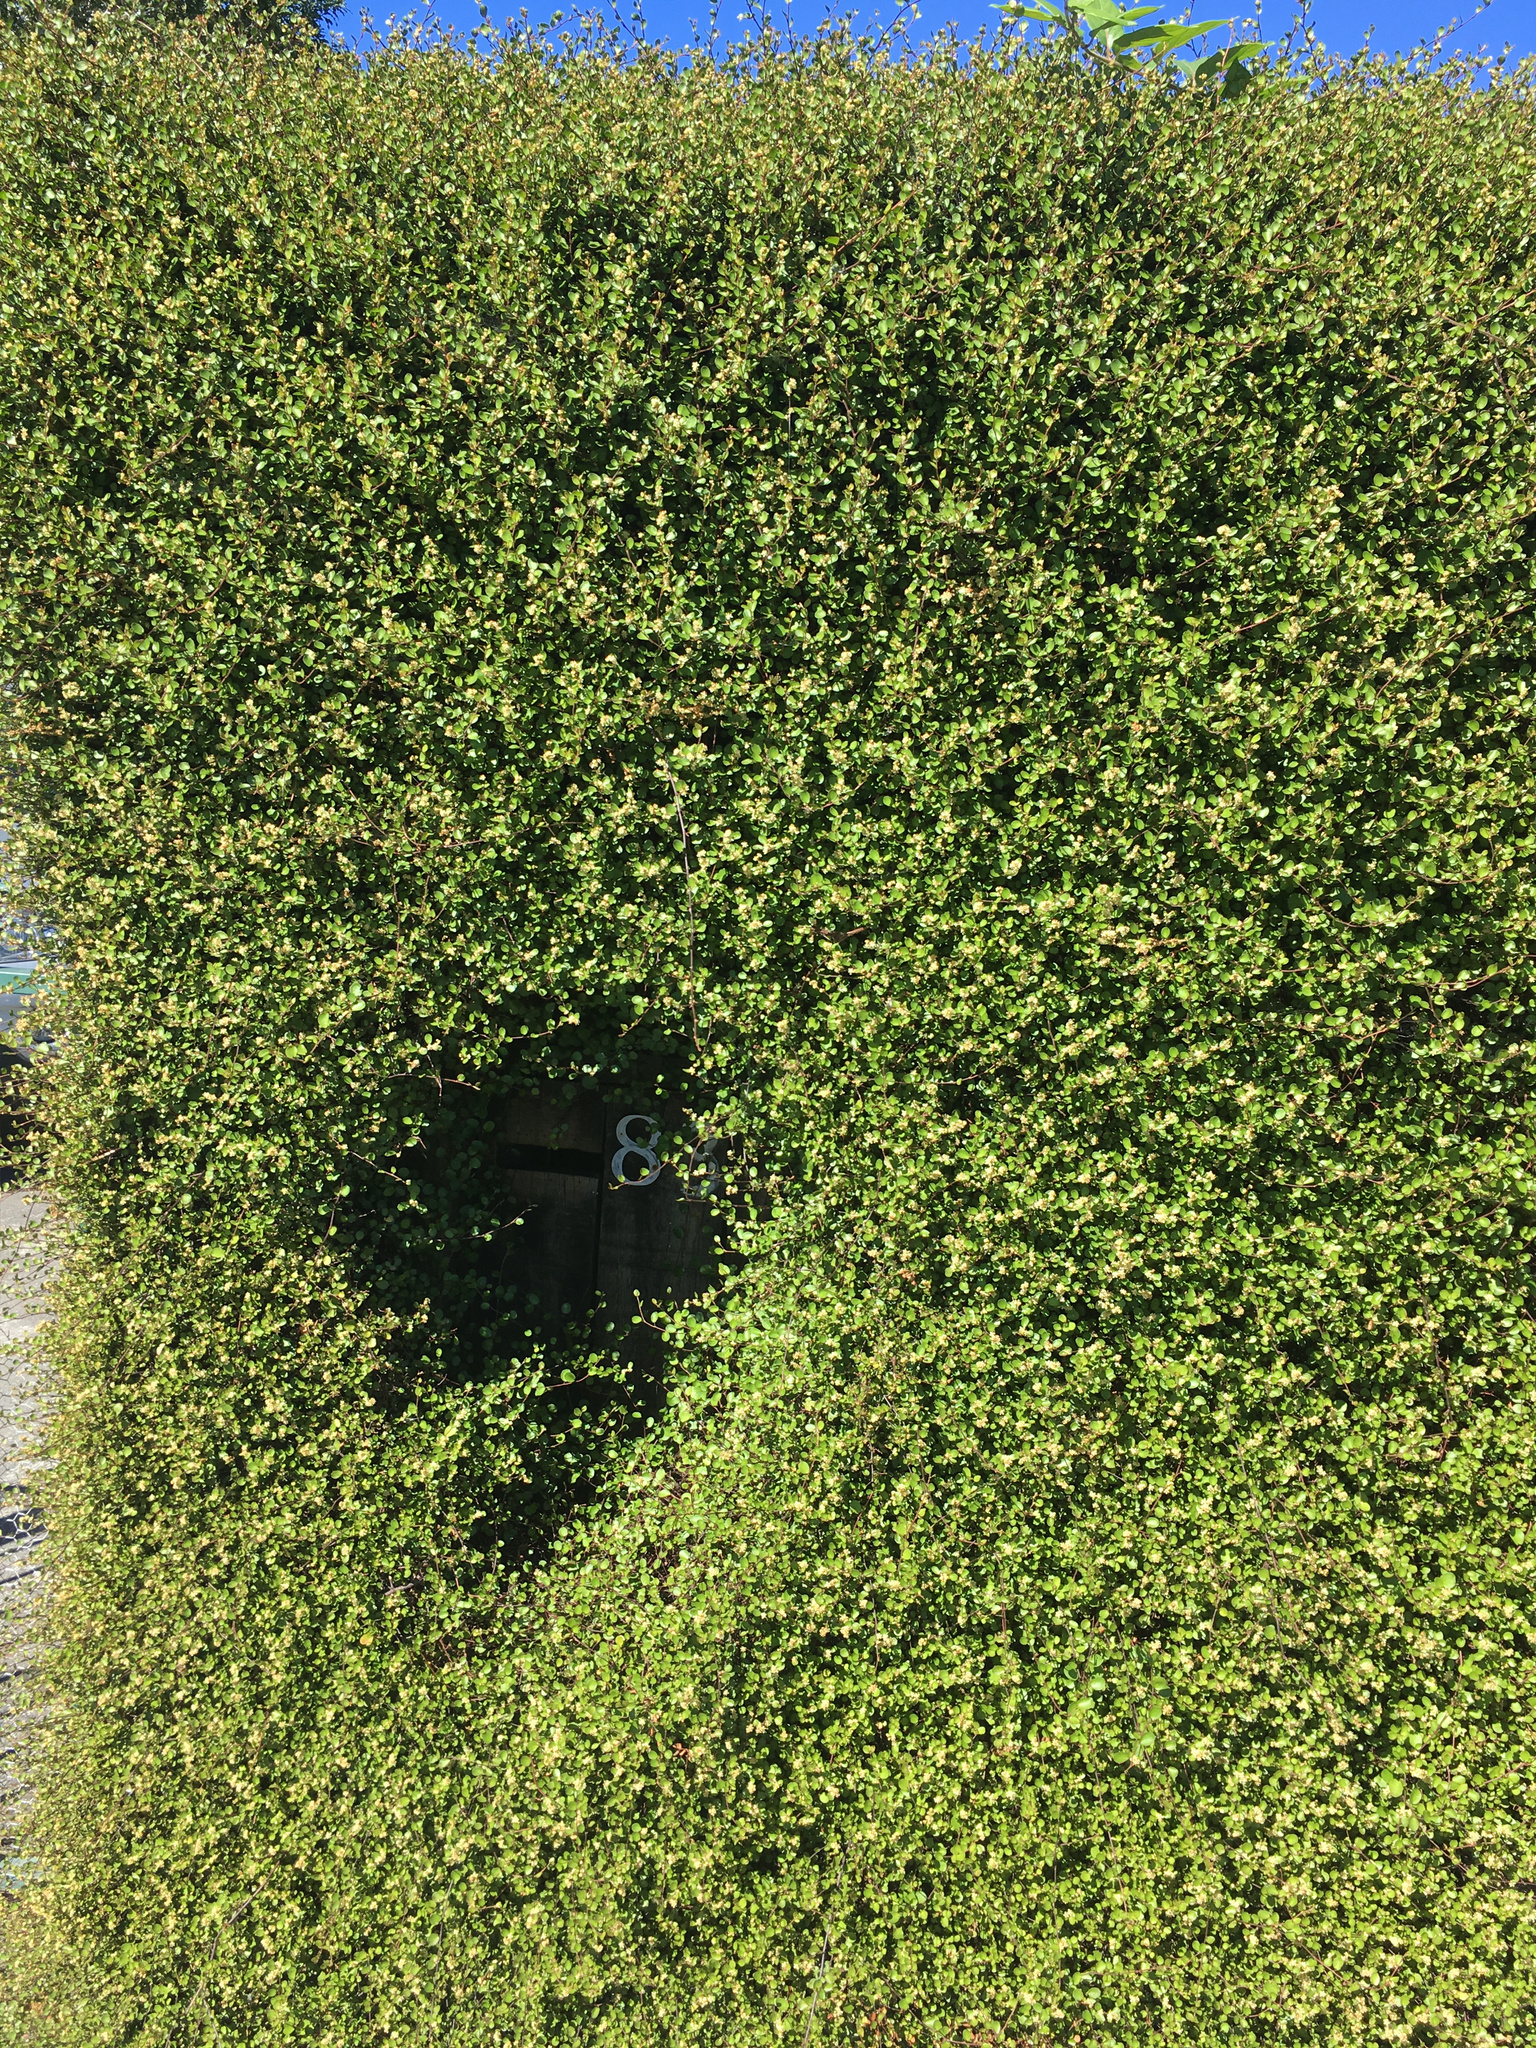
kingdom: Plantae
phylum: Tracheophyta
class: Magnoliopsida
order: Caryophyllales
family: Polygonaceae
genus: Muehlenbeckia
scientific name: Muehlenbeckia complexa
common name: Wireplant
